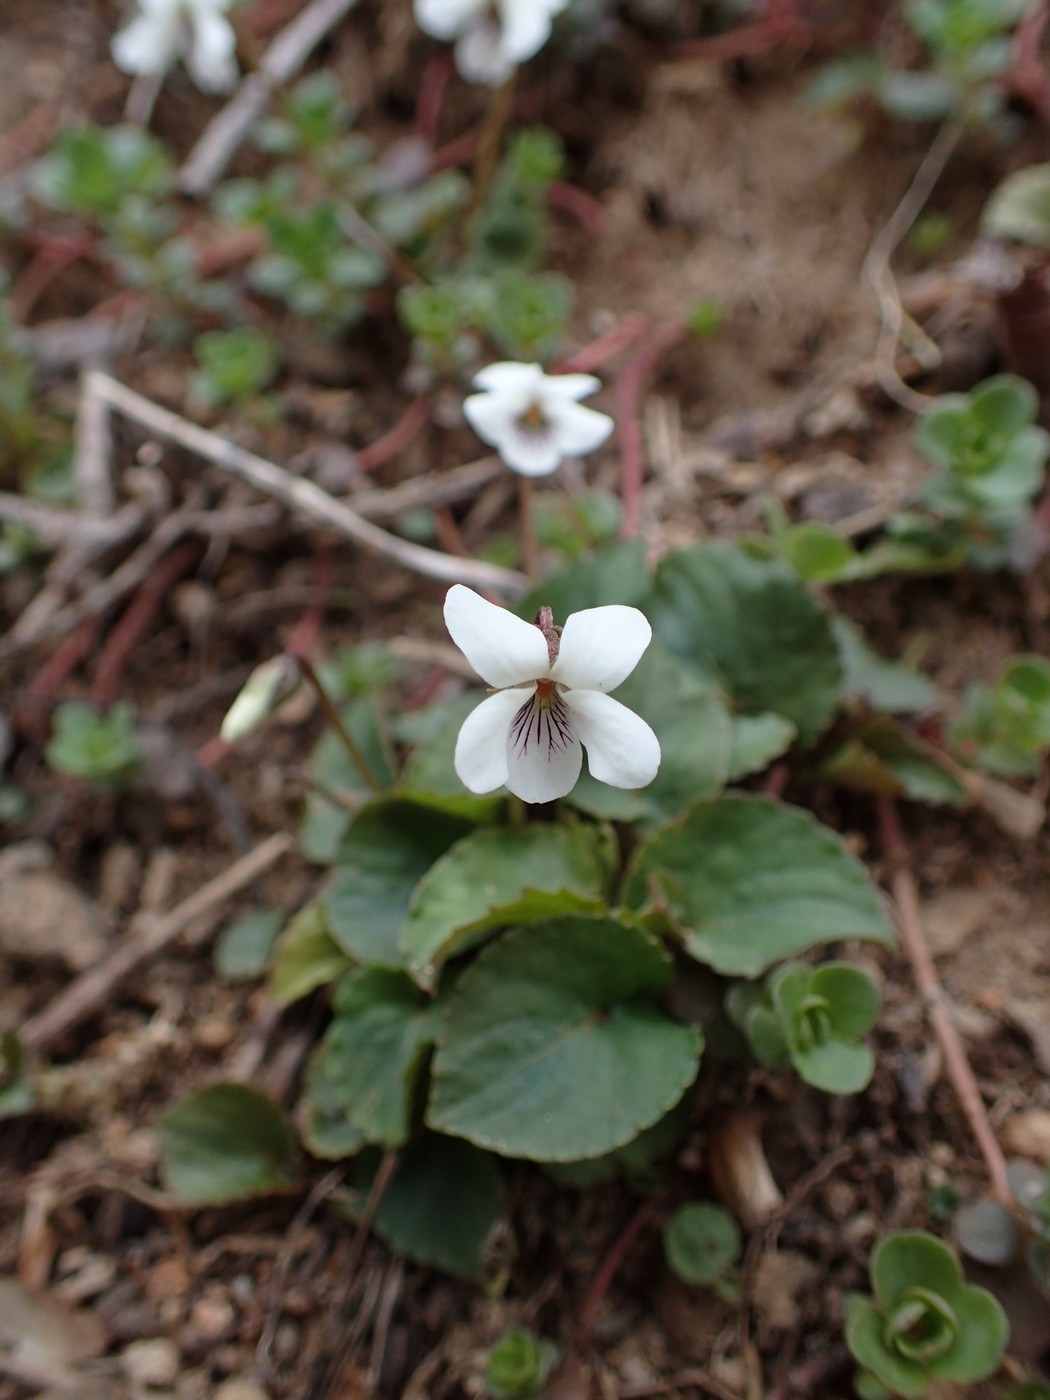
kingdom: Plantae
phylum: Tracheophyta
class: Magnoliopsida
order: Malpighiales
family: Violaceae
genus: Viola
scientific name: Viola blanda
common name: Sweet white violet
